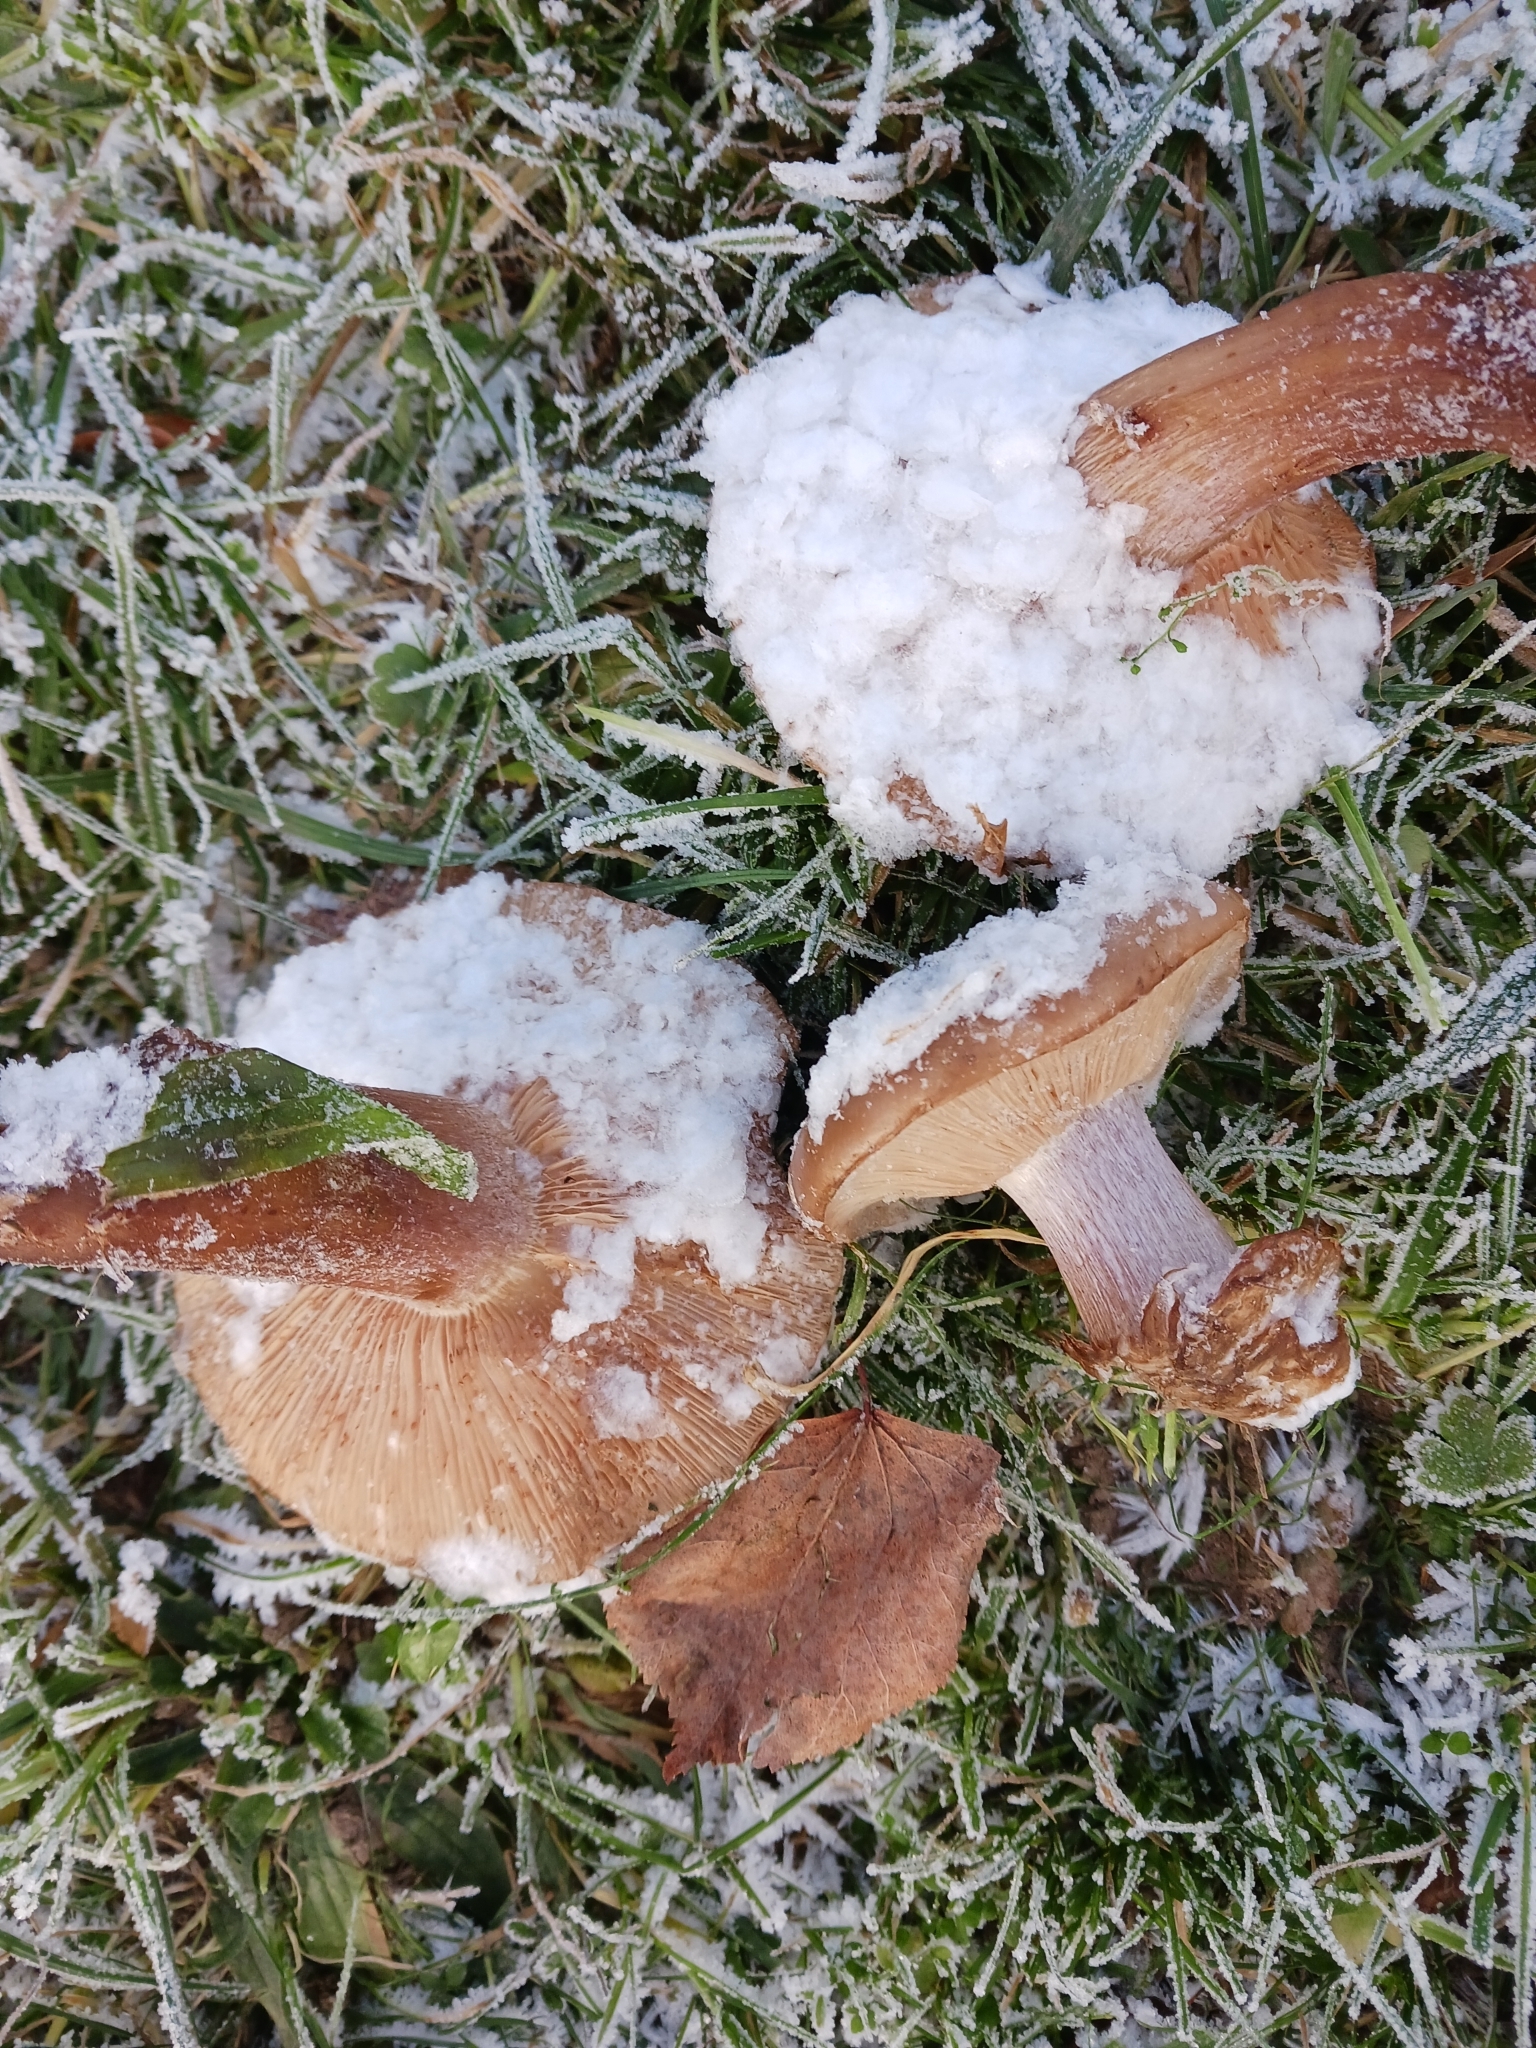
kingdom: Fungi
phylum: Basidiomycota
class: Agaricomycetes
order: Agaricales
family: Omphalotaceae
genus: Collybiopsis
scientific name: Collybiopsis peronata
